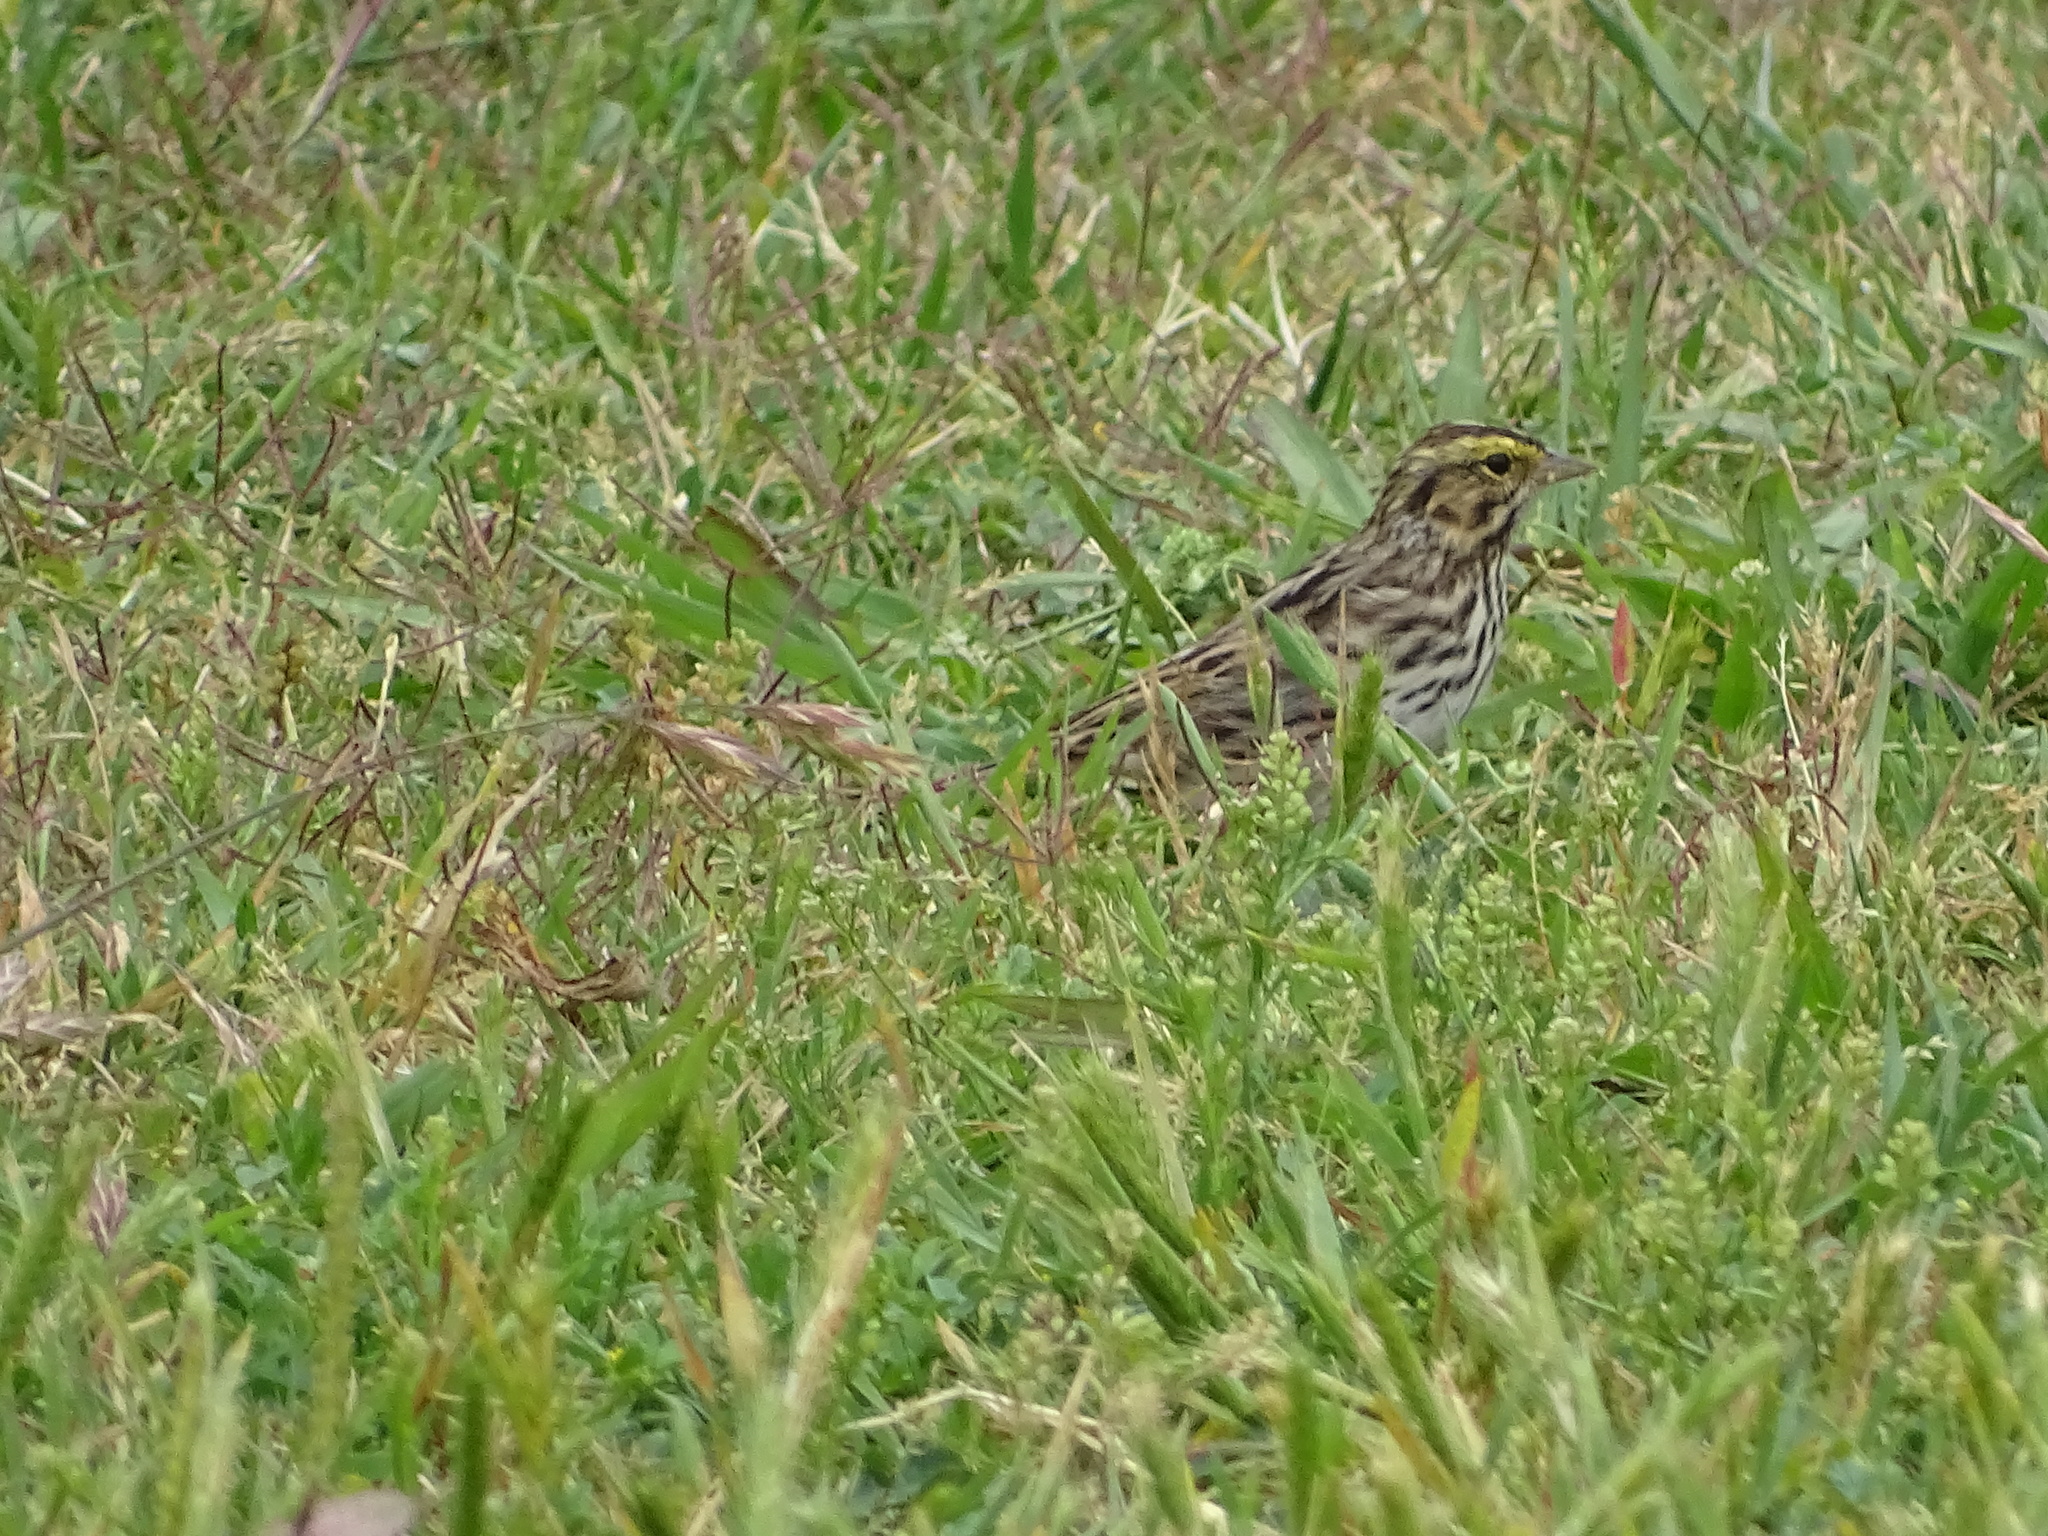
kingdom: Animalia
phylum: Chordata
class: Aves
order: Passeriformes
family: Passerellidae
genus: Passerculus
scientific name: Passerculus sandwichensis
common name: Savannah sparrow
